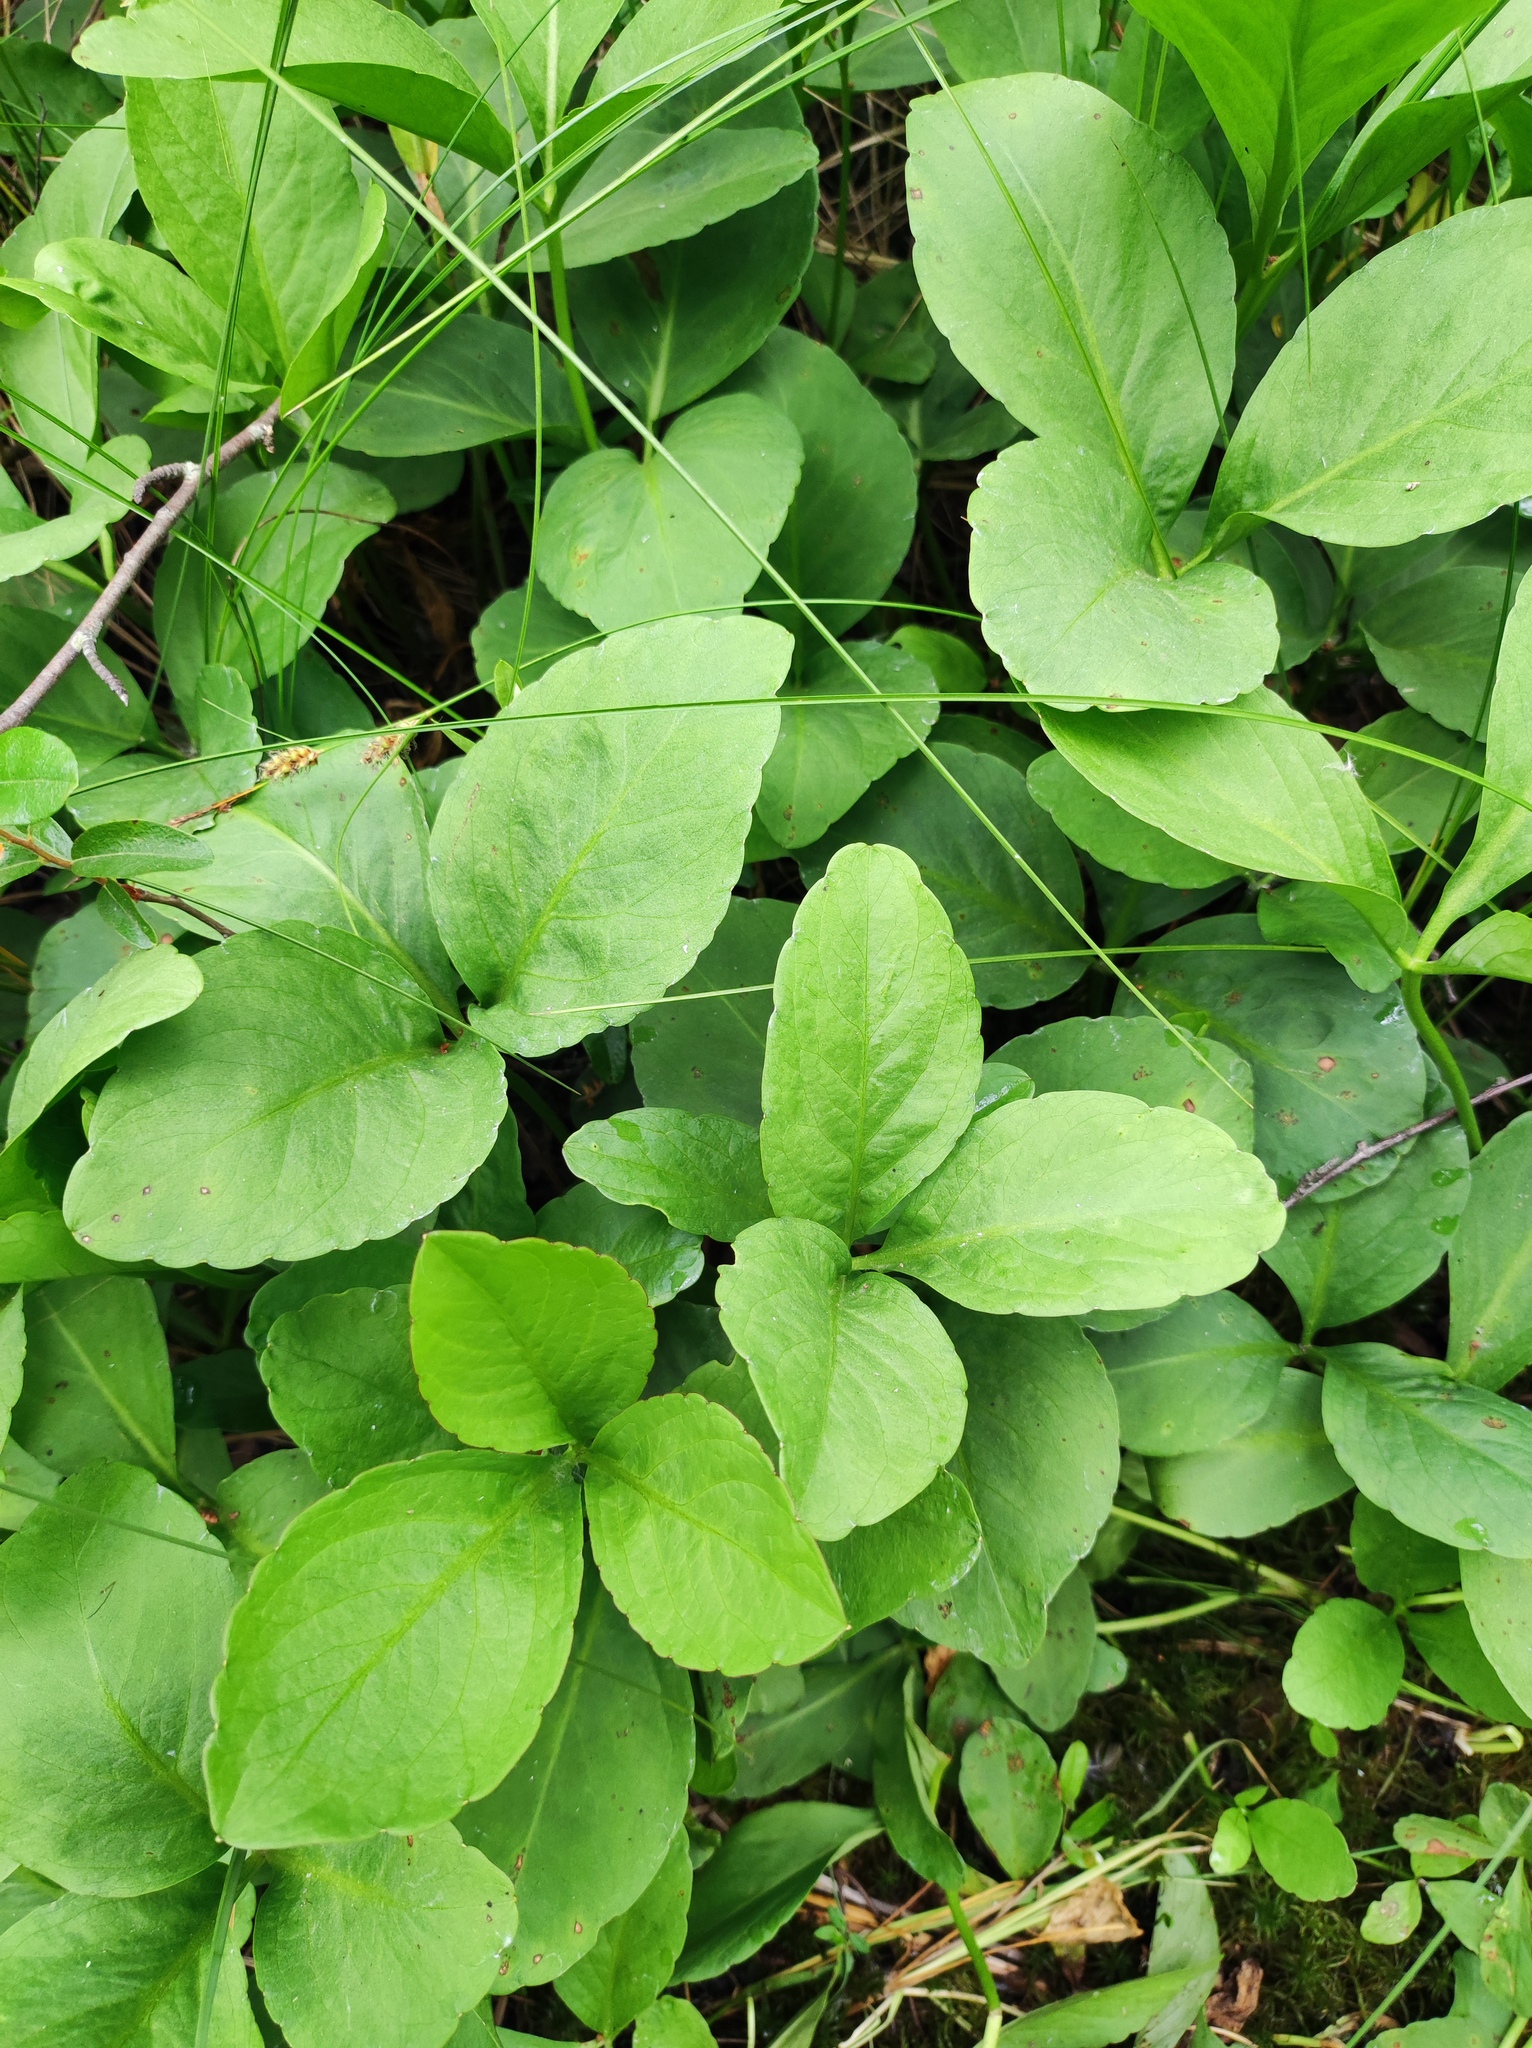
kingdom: Plantae
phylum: Tracheophyta
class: Magnoliopsida
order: Asterales
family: Menyanthaceae
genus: Menyanthes
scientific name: Menyanthes trifoliata
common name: Bogbean
